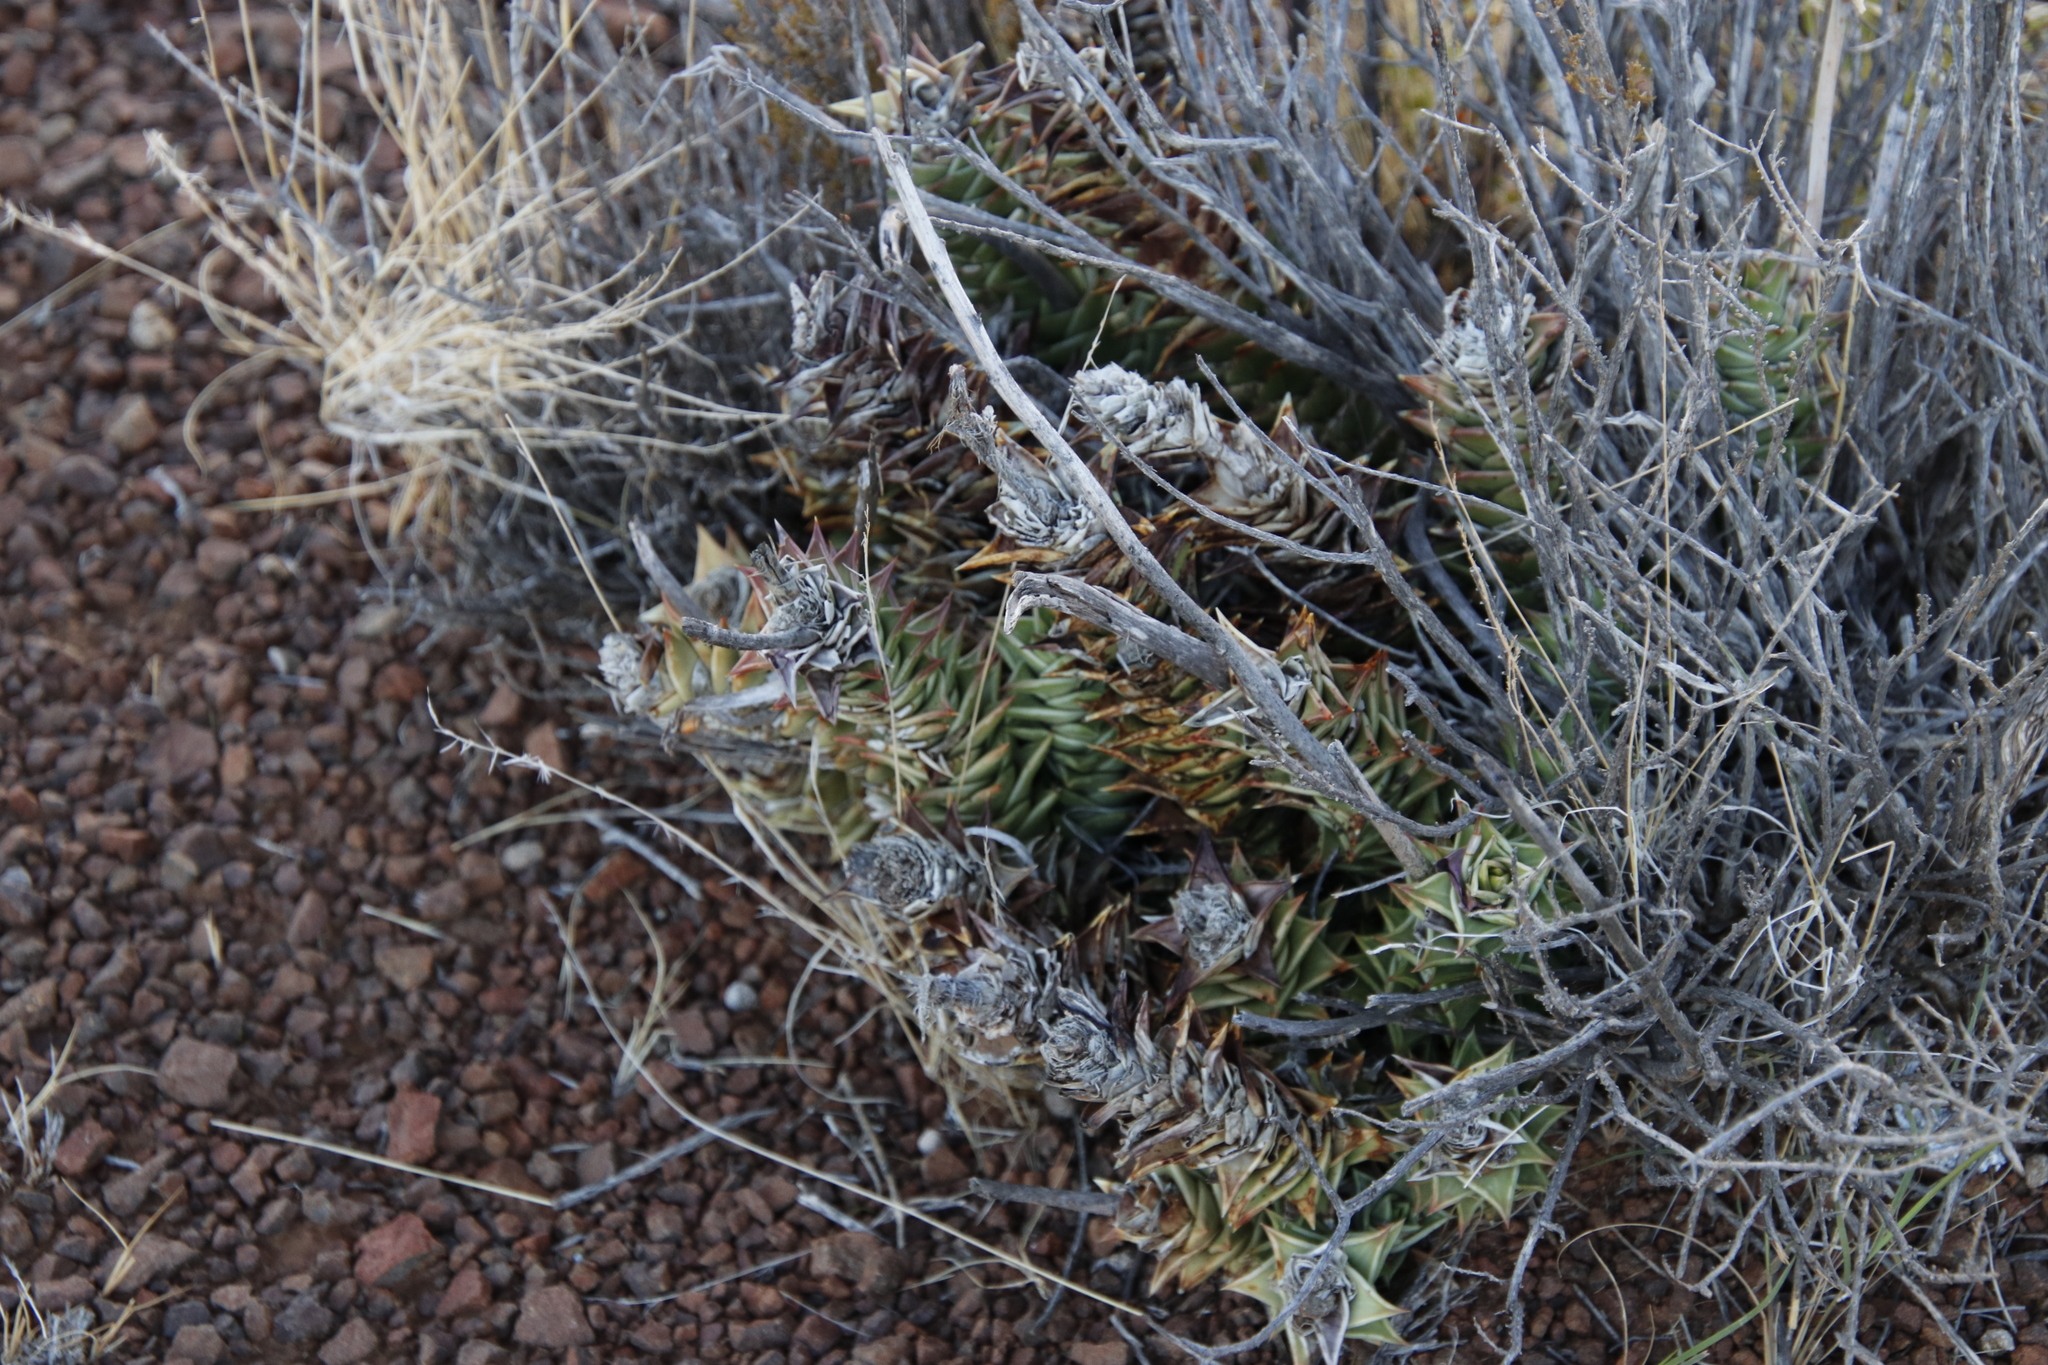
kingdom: Plantae
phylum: Tracheophyta
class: Liliopsida
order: Asparagales
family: Asphodelaceae
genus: Astroloba
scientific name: Astroloba robusta
